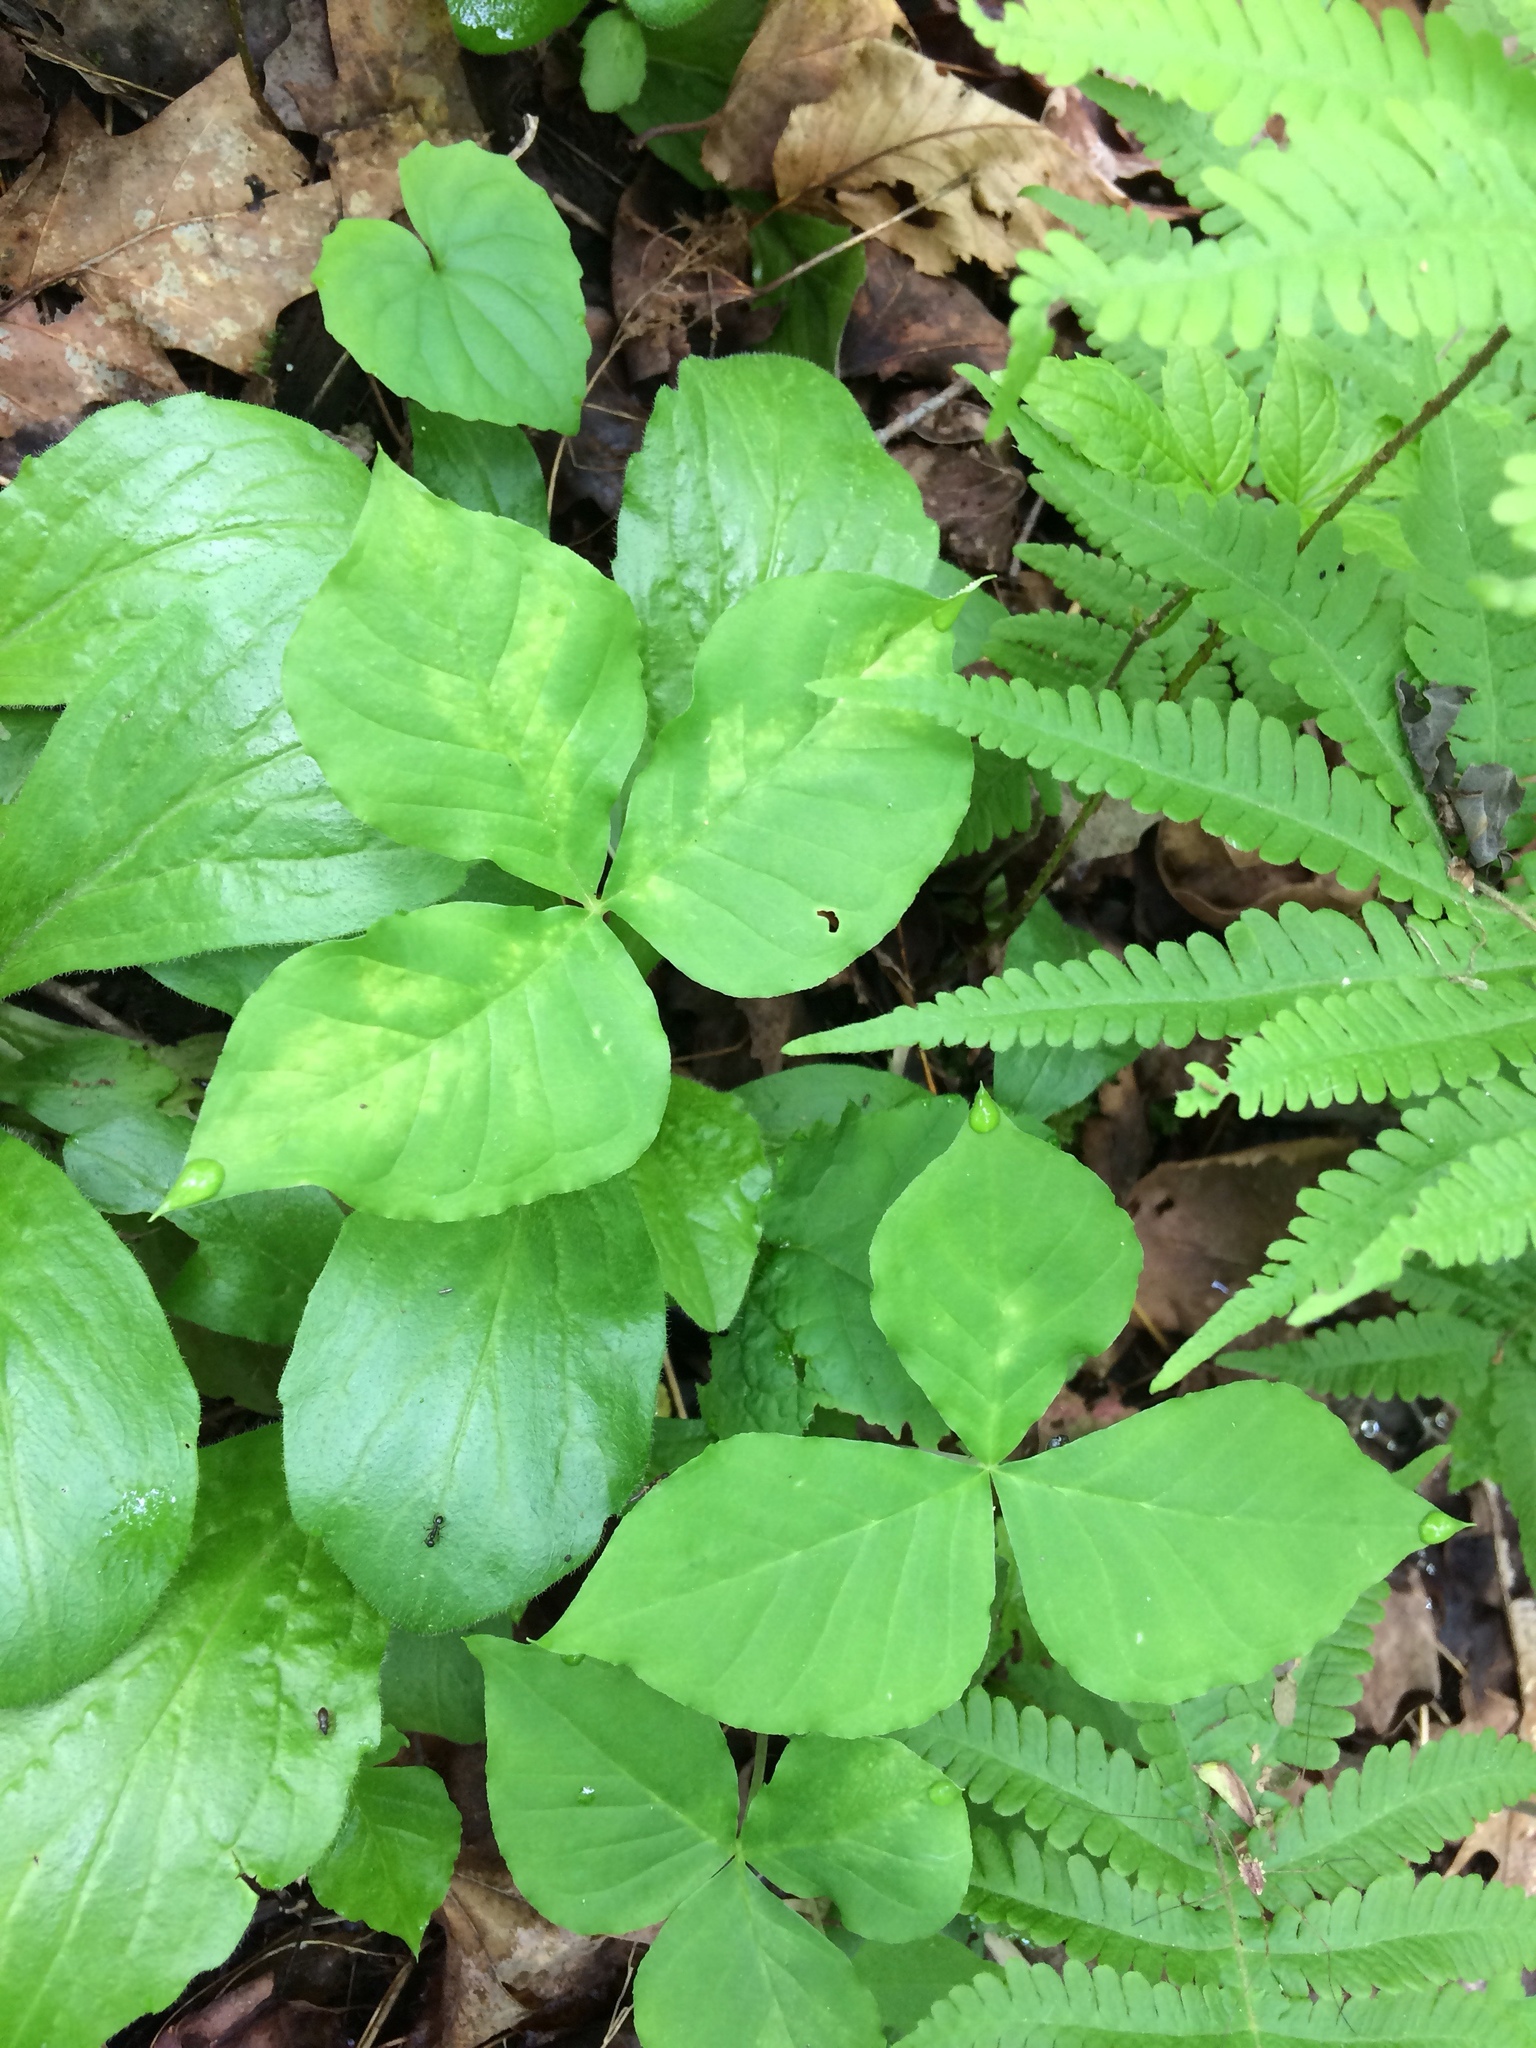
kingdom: Plantae
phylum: Tracheophyta
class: Liliopsida
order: Alismatales
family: Araceae
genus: Arisaema
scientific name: Arisaema triphyllum
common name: Jack-in-the-pulpit
